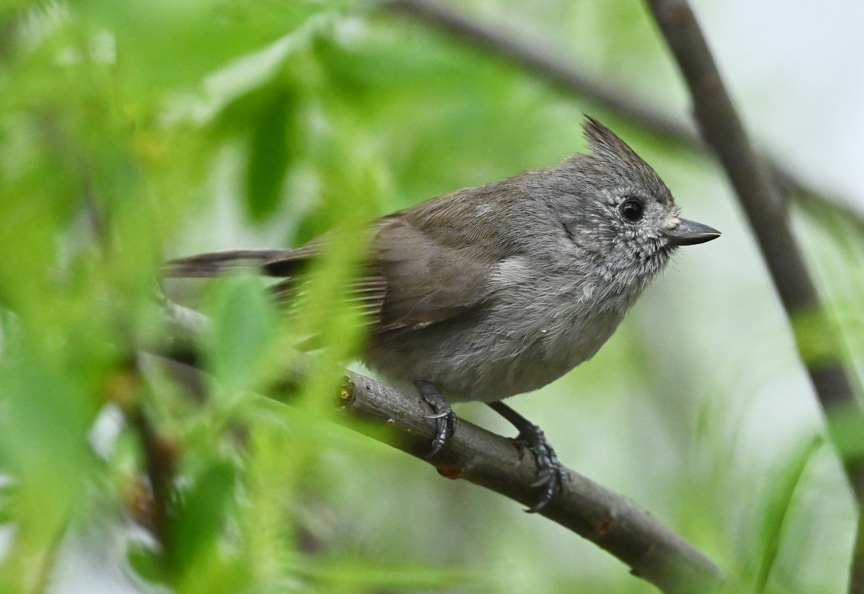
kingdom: Animalia
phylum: Chordata
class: Aves
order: Passeriformes
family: Paridae
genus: Baeolophus
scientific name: Baeolophus inornatus
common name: Oak titmouse
